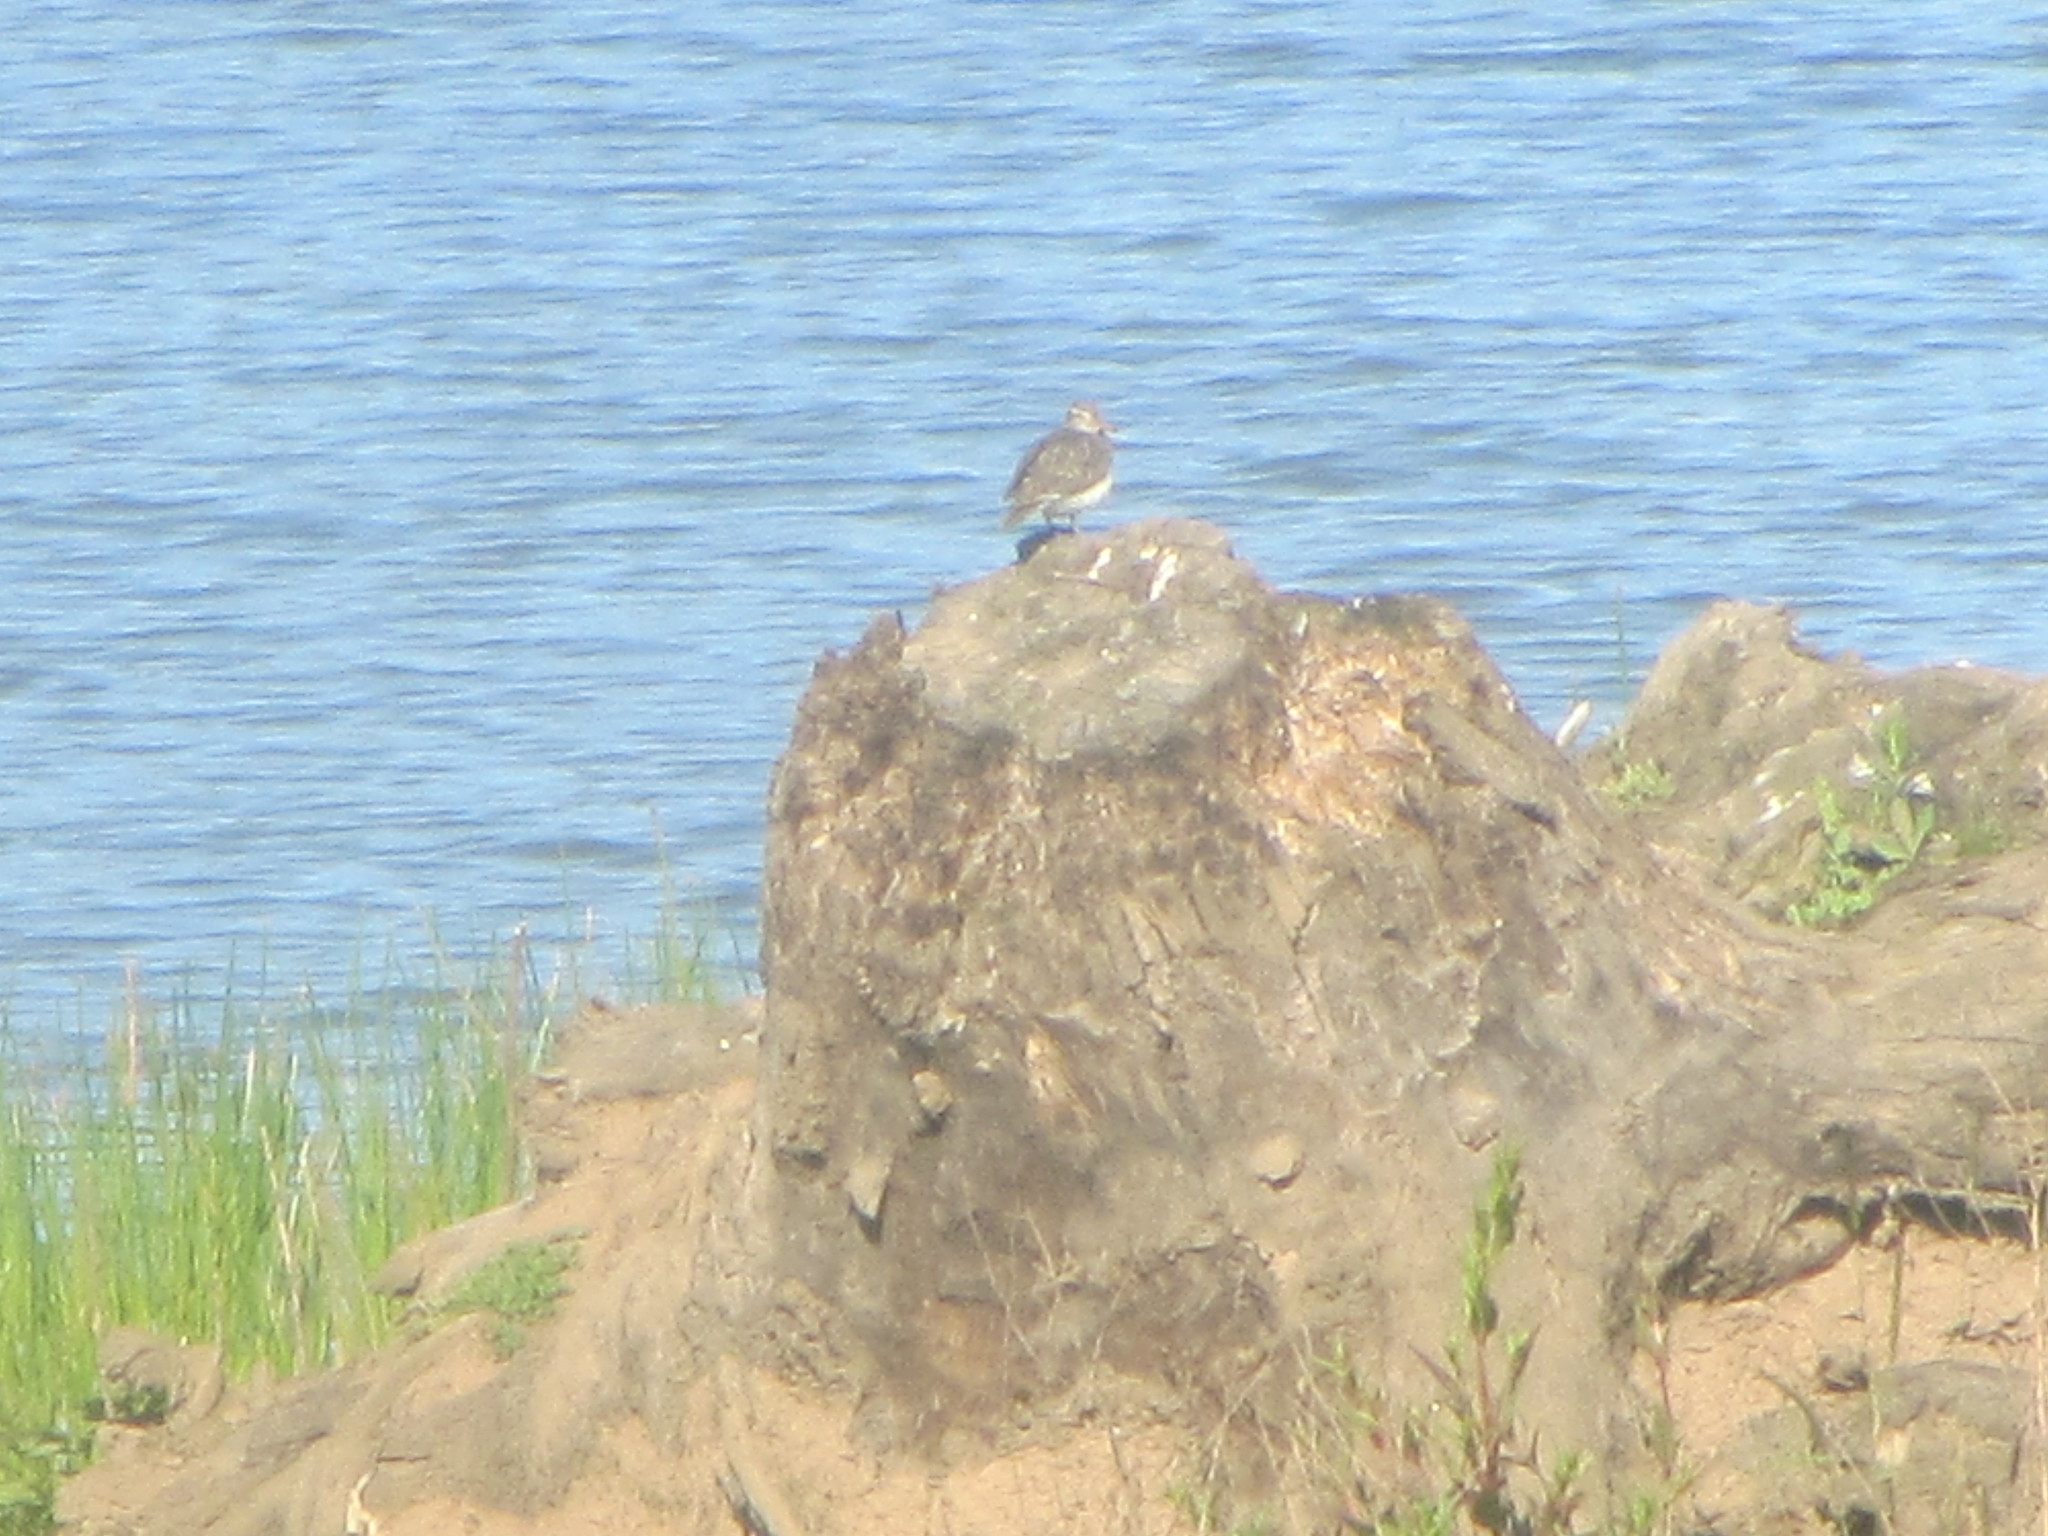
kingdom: Animalia
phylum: Chordata
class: Aves
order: Charadriiformes
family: Scolopacidae
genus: Actitis
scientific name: Actitis macularius
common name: Spotted sandpiper
